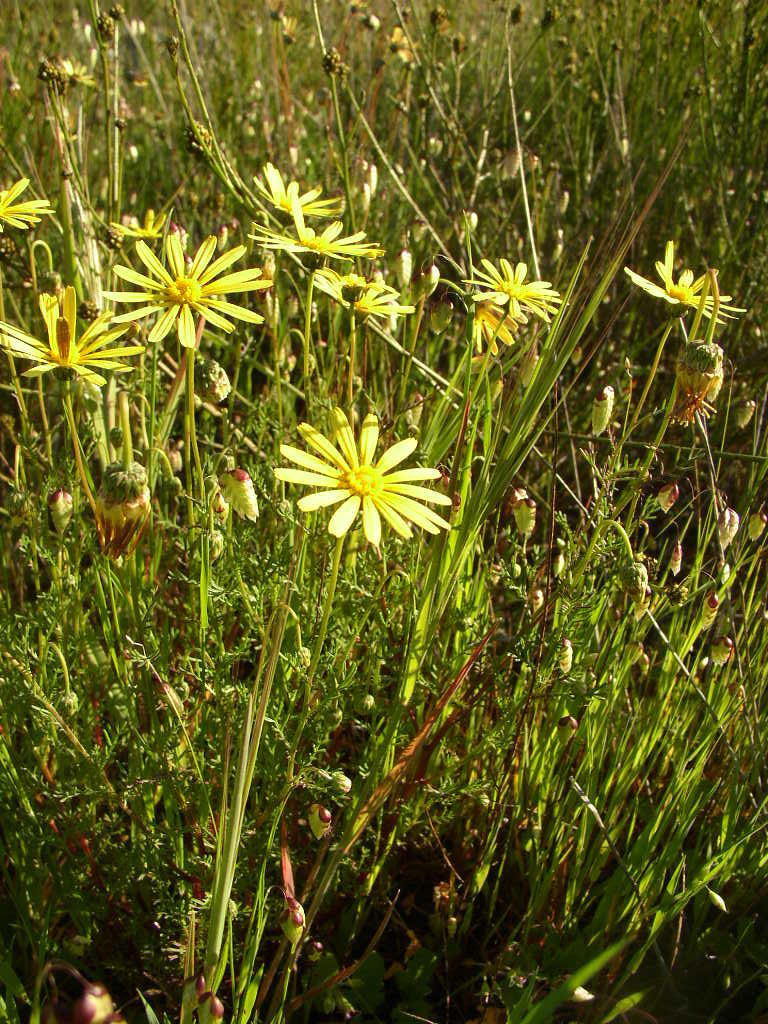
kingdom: Plantae
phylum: Tracheophyta
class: Magnoliopsida
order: Asterales
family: Asteraceae
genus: Ursinia
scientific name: Ursinia anthemoides
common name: Ursinia
